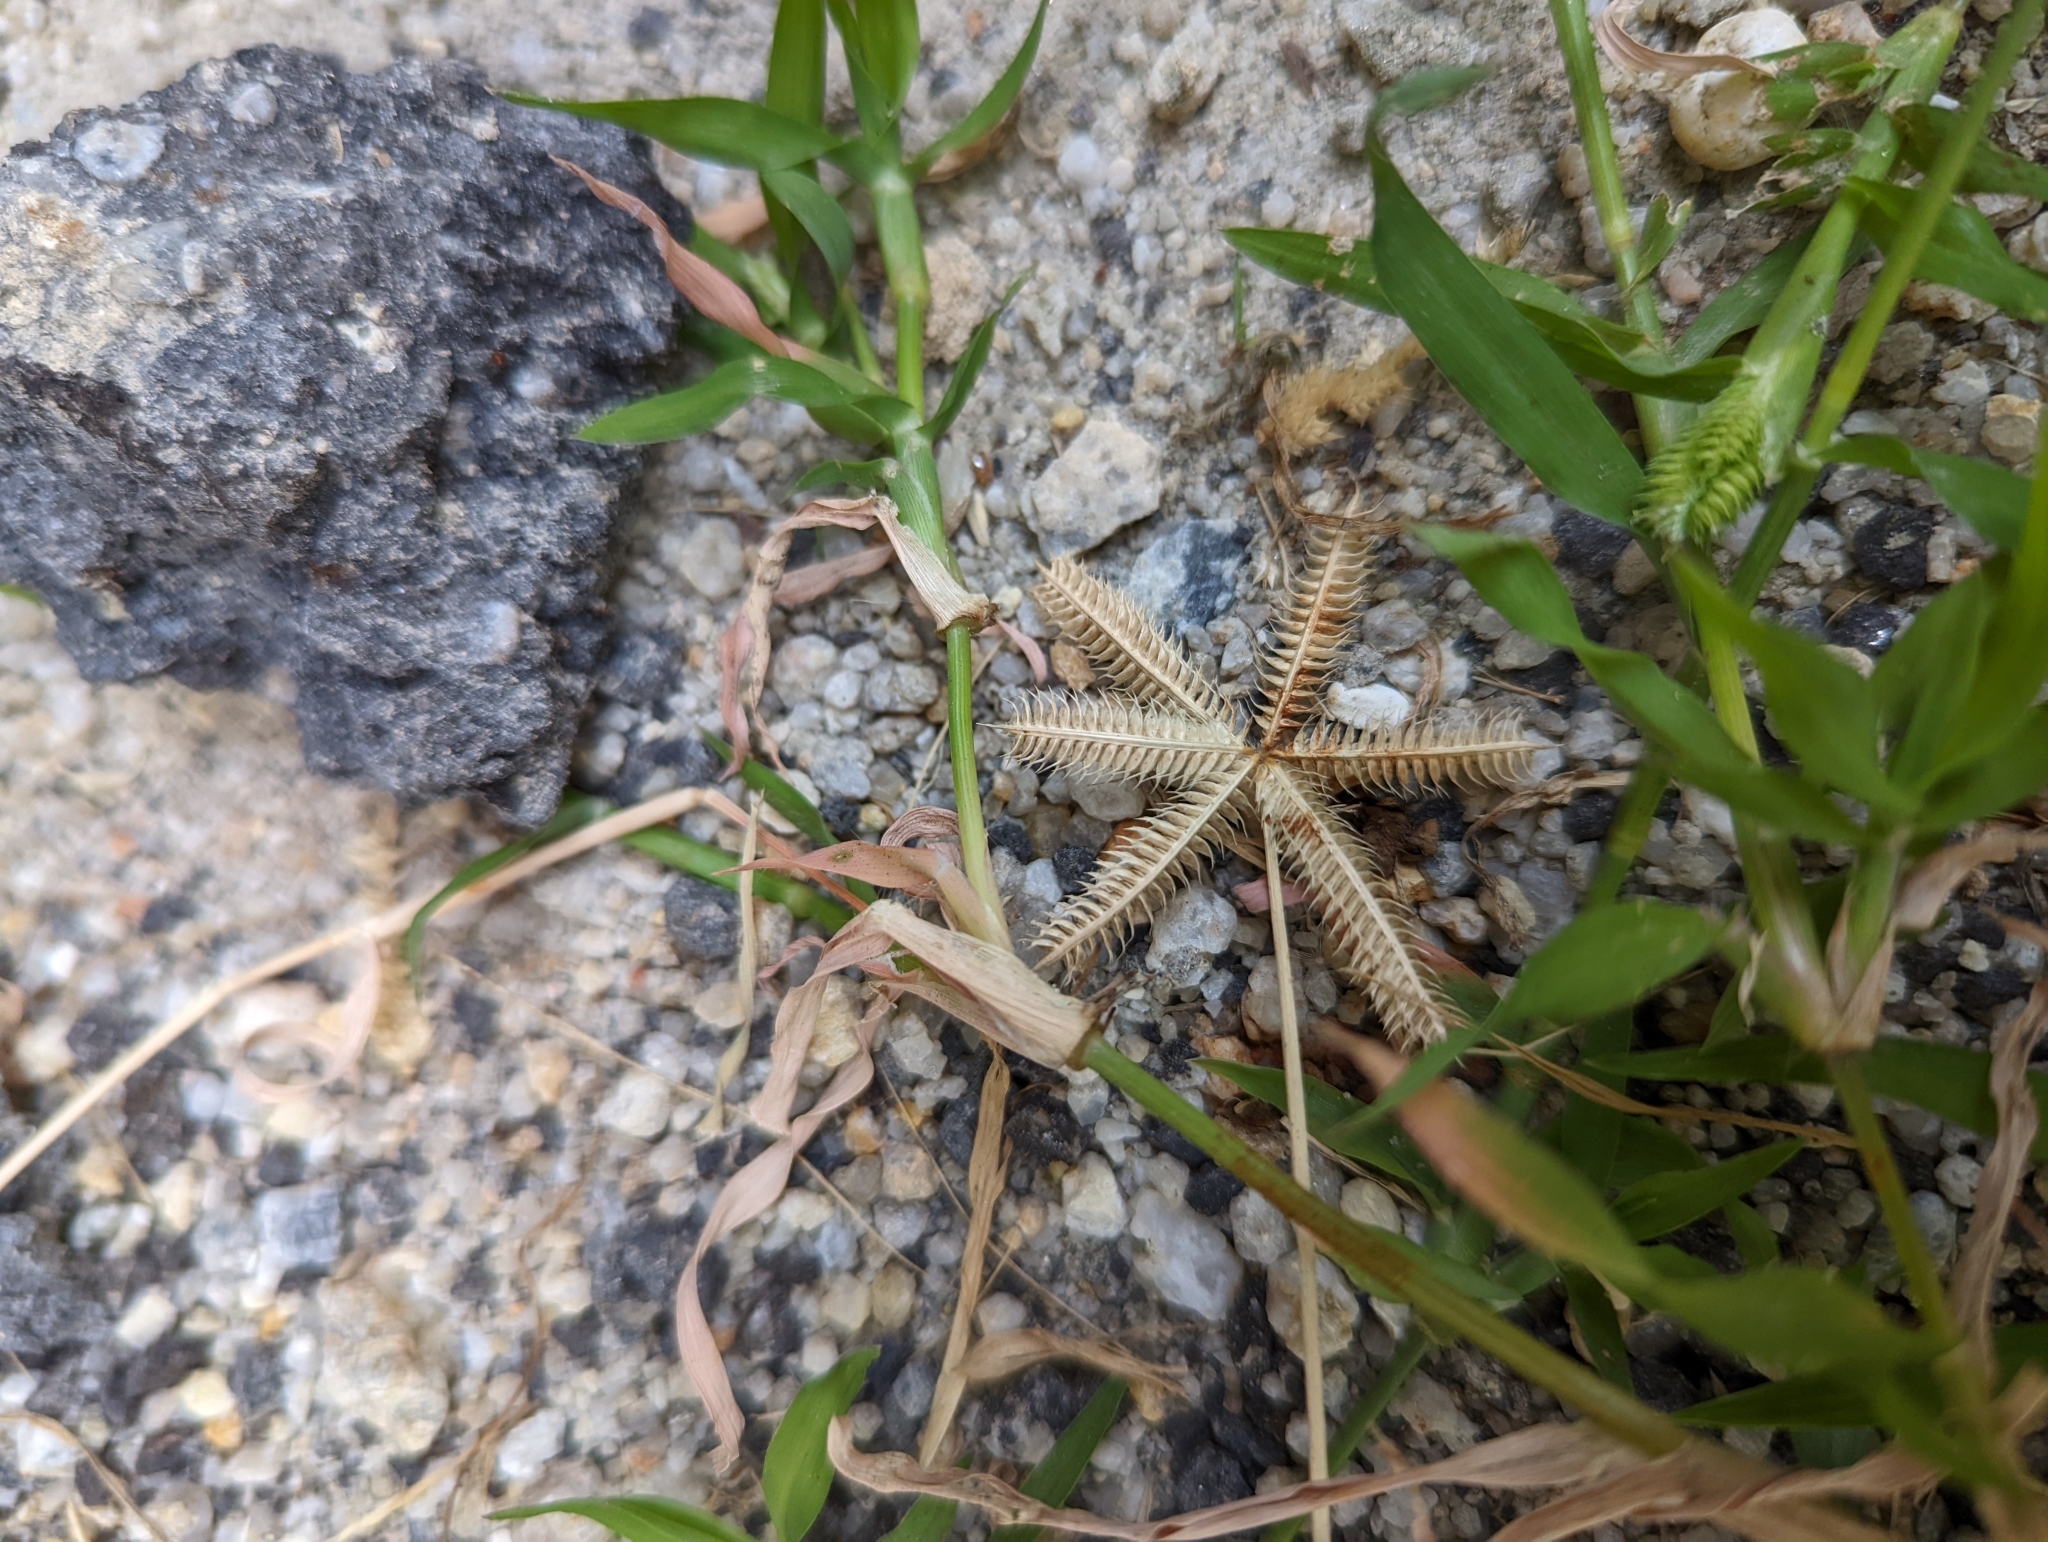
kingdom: Plantae
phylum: Tracheophyta
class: Liliopsida
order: Poales
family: Poaceae
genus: Dactyloctenium
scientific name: Dactyloctenium aegyptium
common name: Egyptian grass
